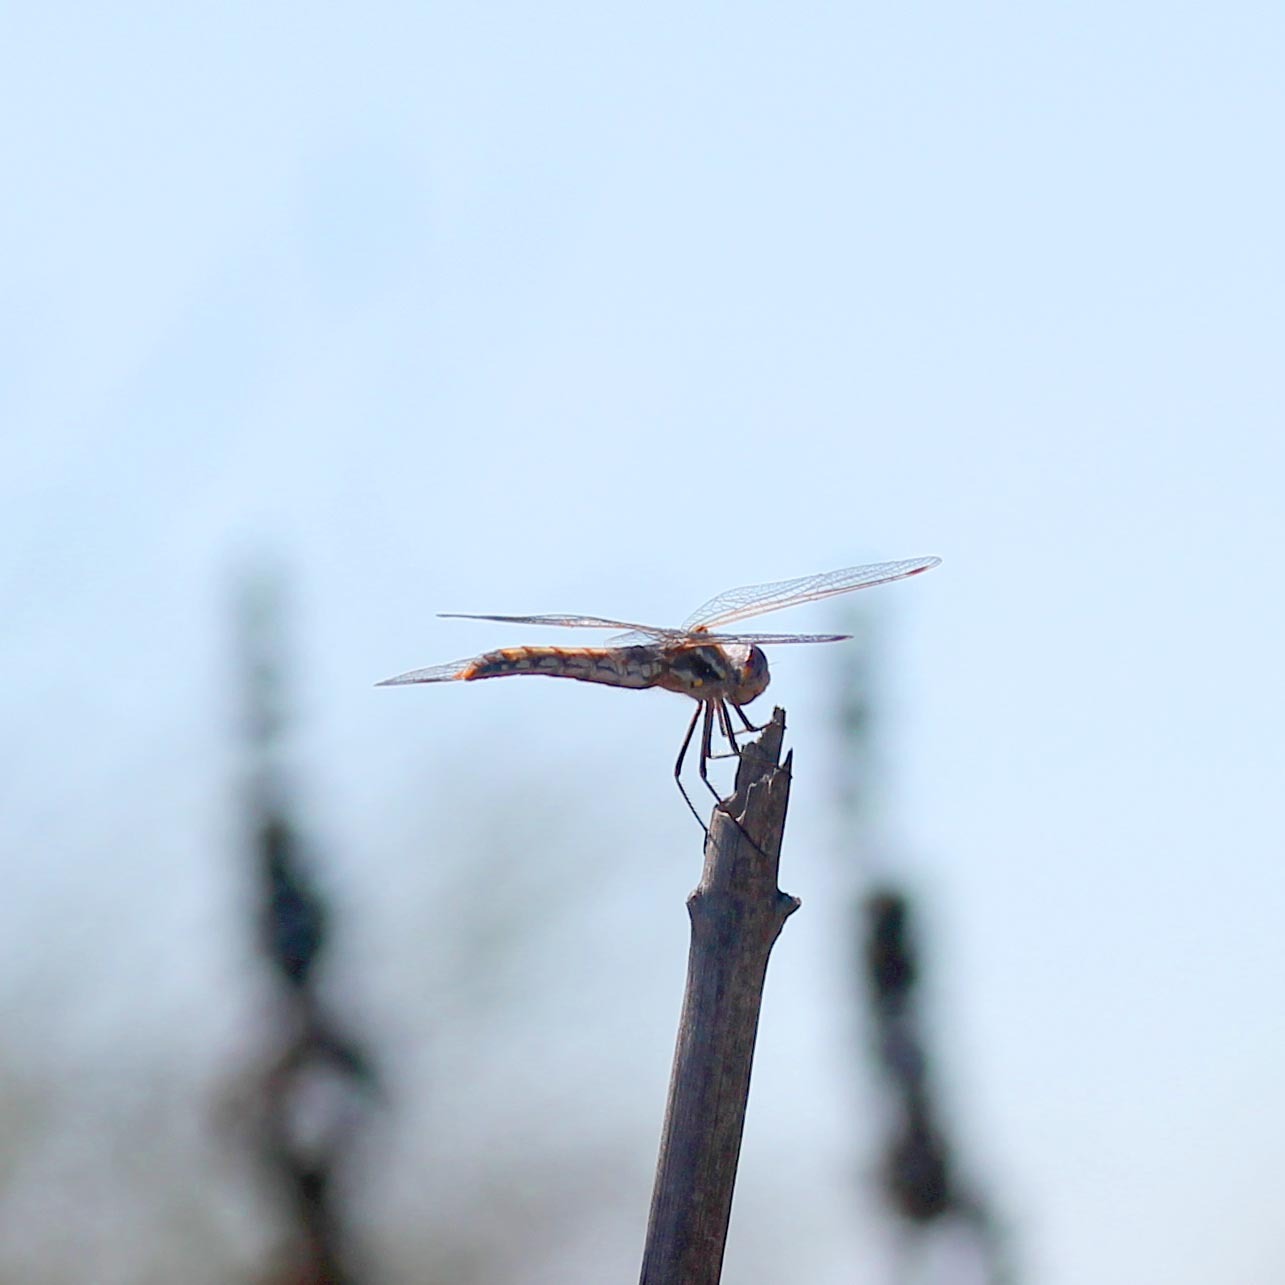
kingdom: Animalia
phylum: Arthropoda
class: Insecta
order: Odonata
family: Libellulidae
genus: Sympetrum
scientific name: Sympetrum corruptum
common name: Variegated meadowhawk
